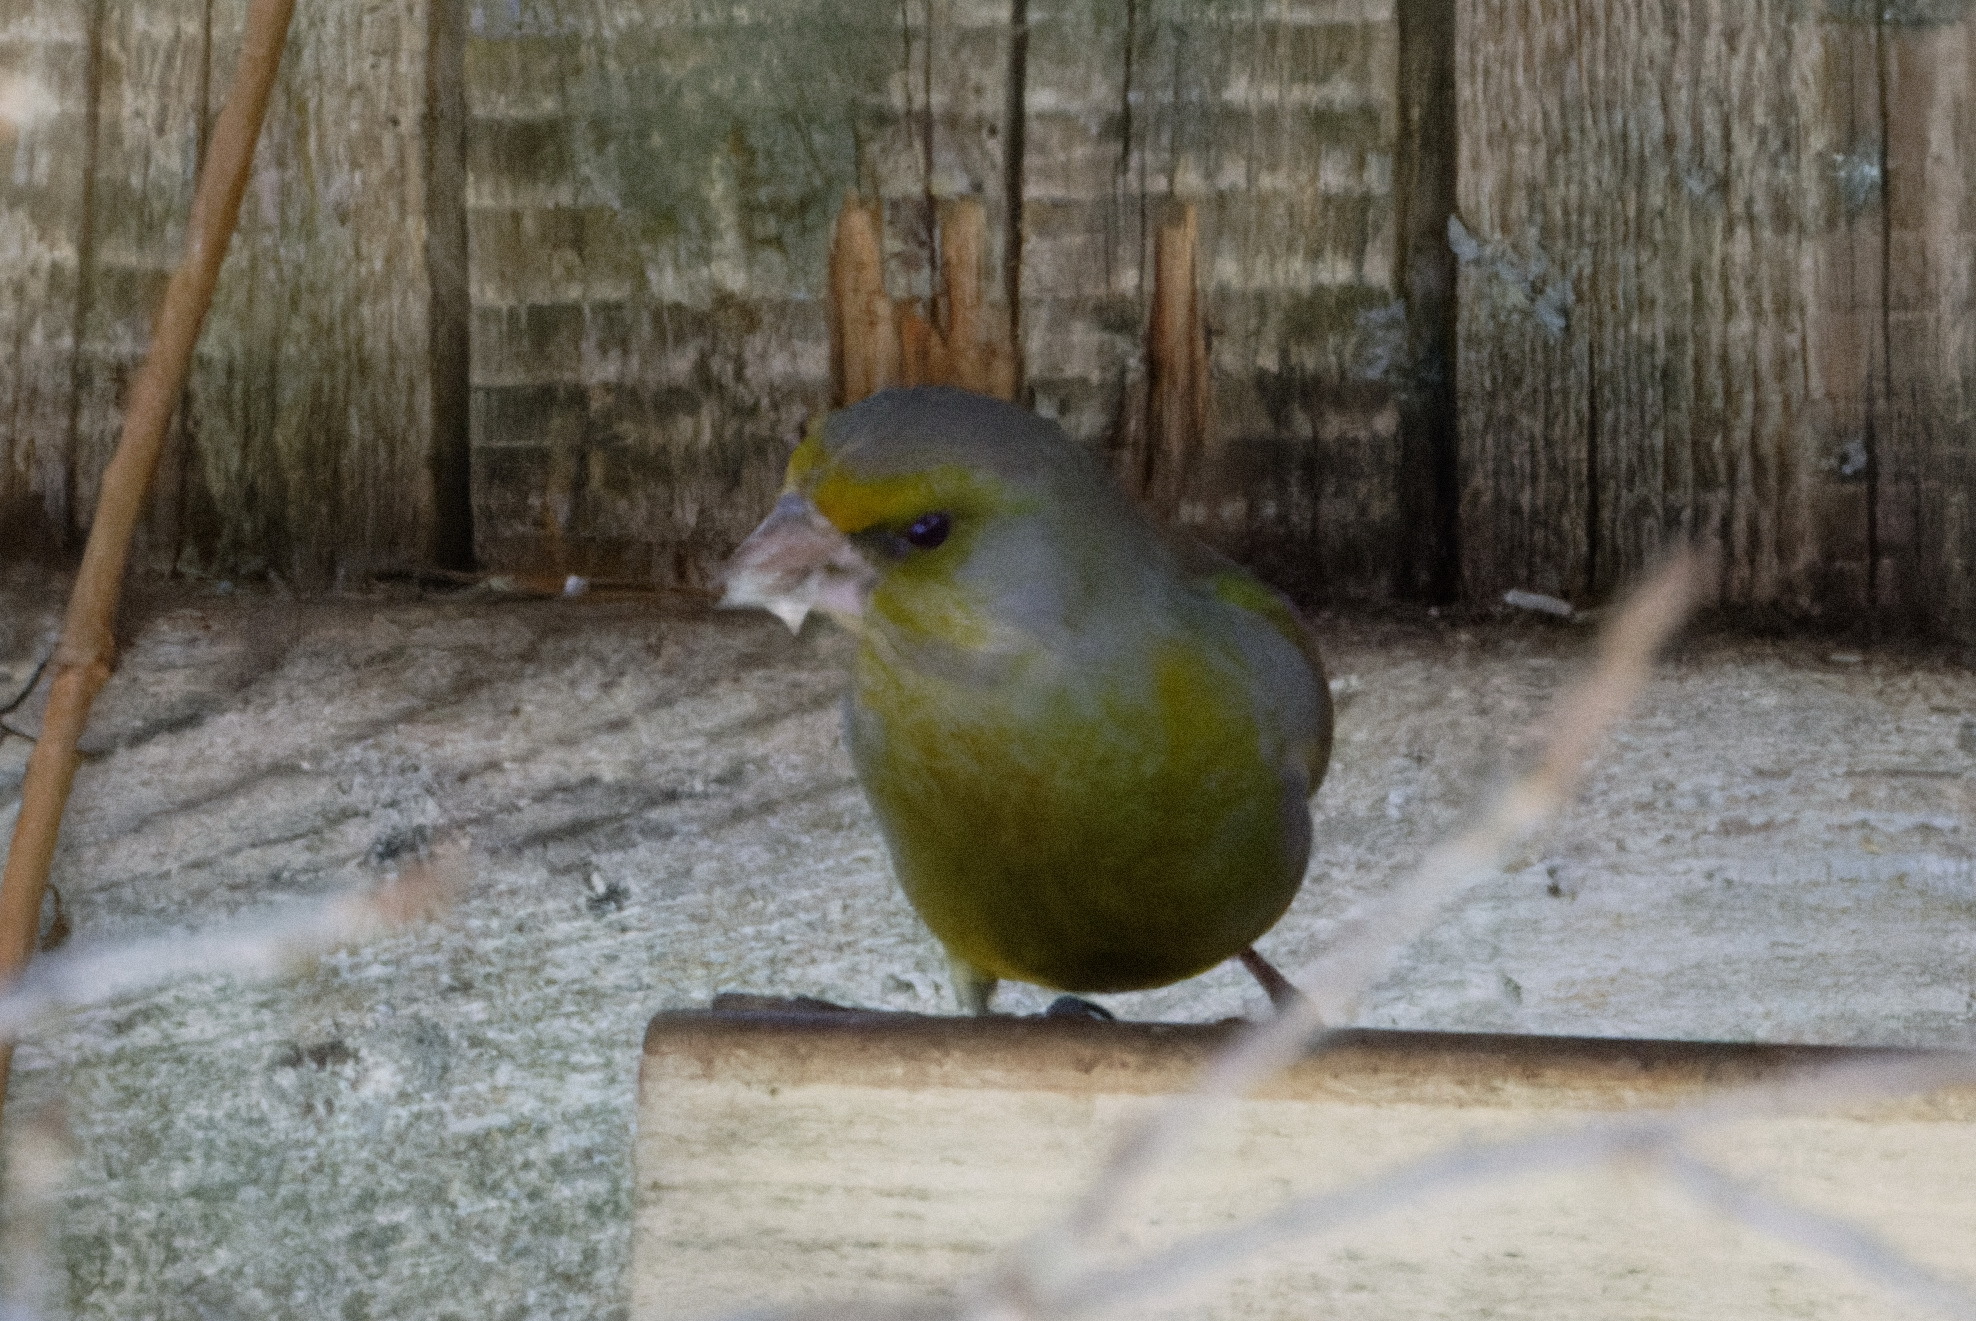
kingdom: Plantae
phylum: Tracheophyta
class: Liliopsida
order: Poales
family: Poaceae
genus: Chloris
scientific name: Chloris chloris
